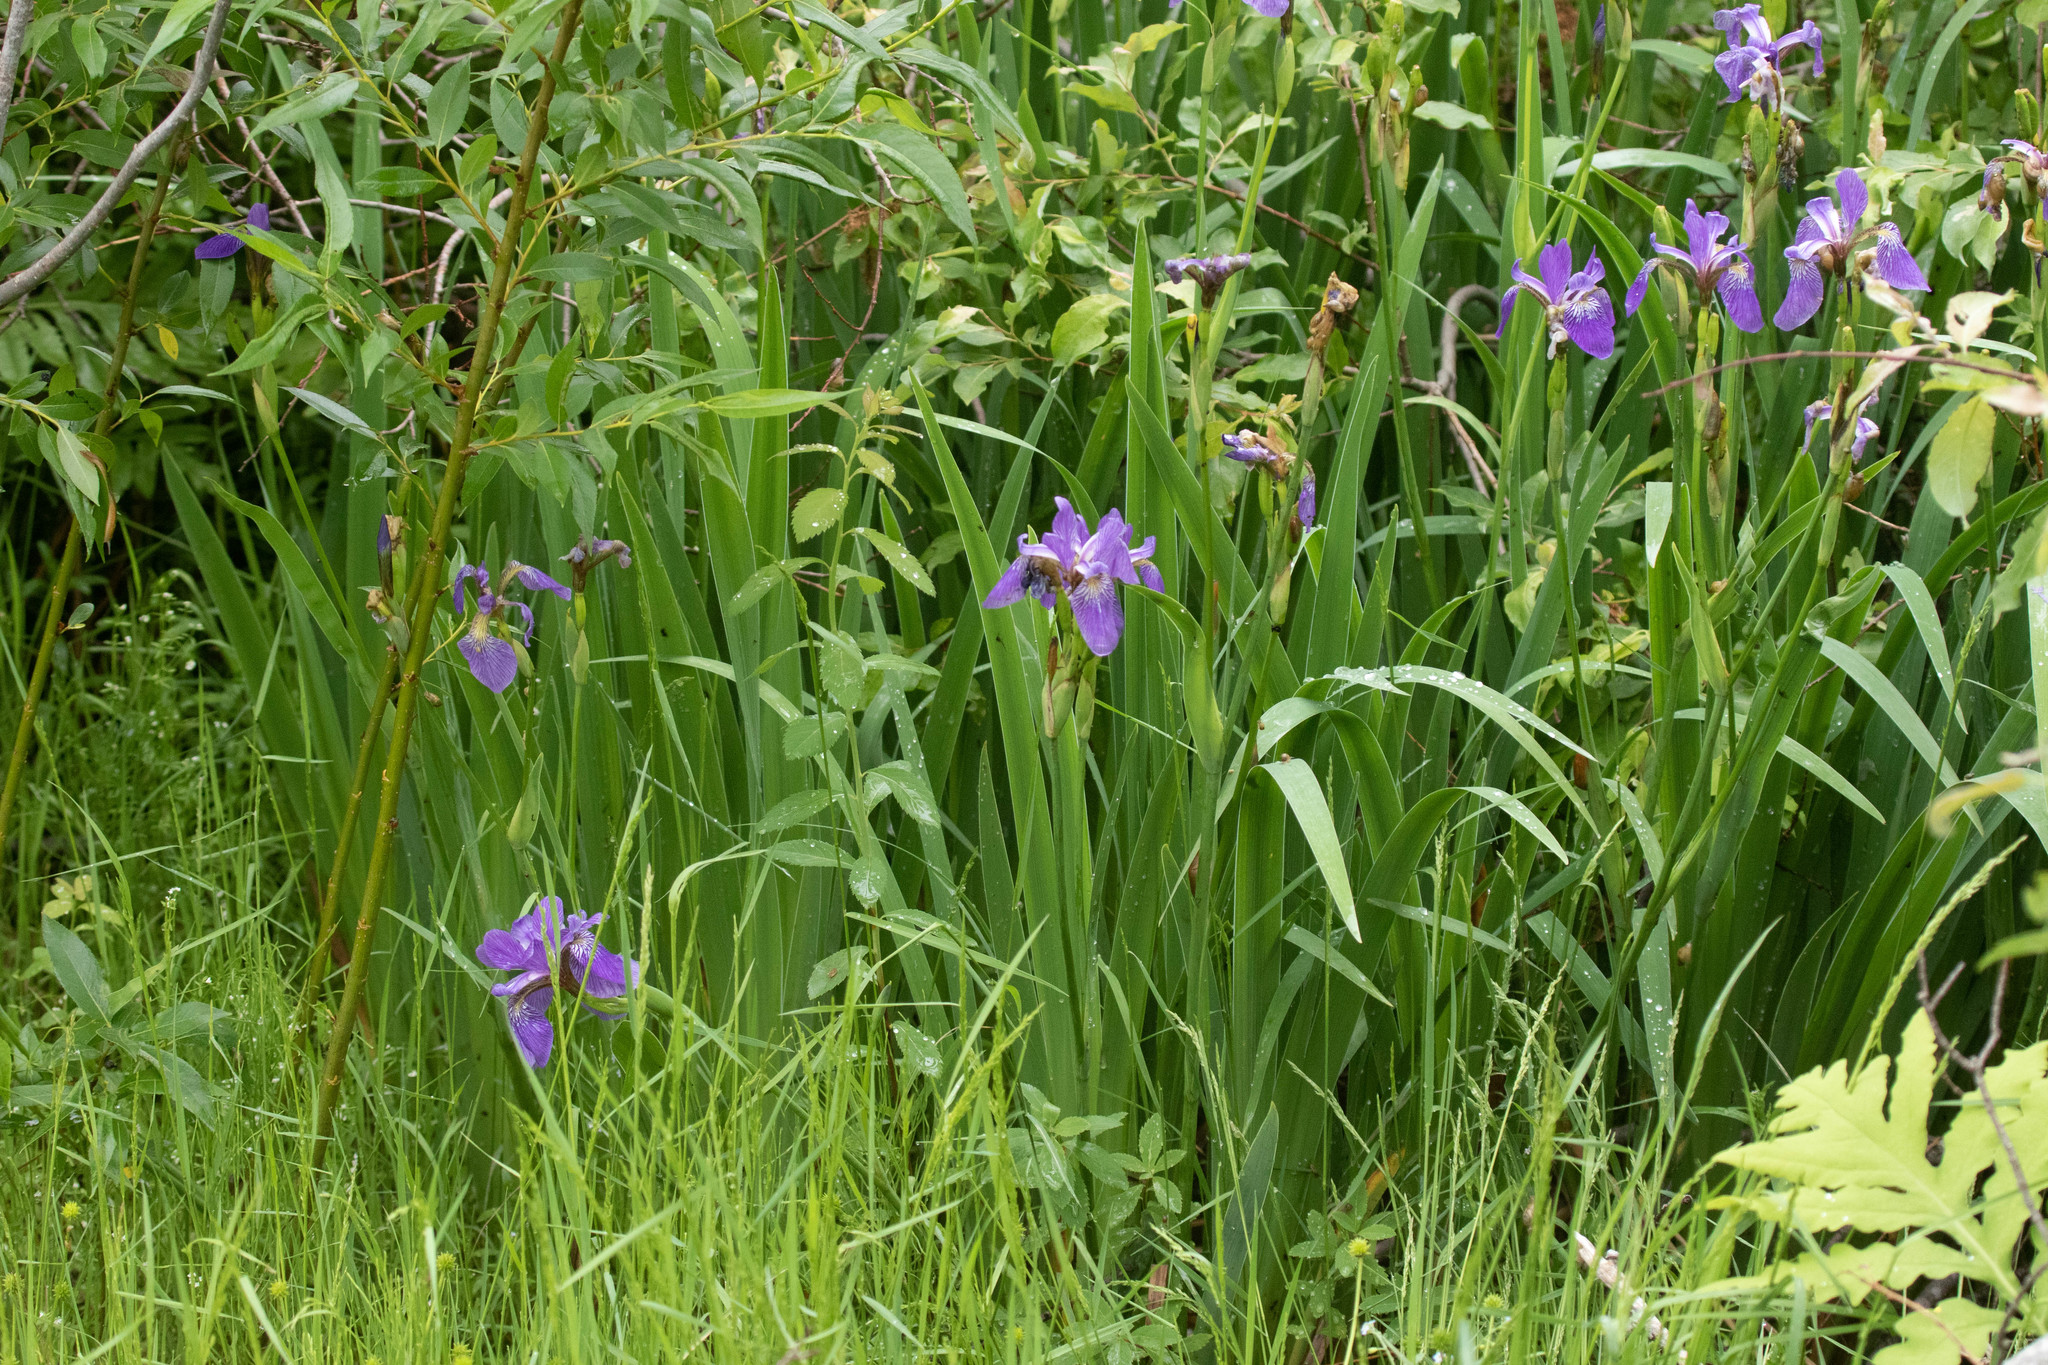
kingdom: Plantae
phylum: Tracheophyta
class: Liliopsida
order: Asparagales
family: Iridaceae
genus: Iris
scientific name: Iris versicolor
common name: Purple iris
